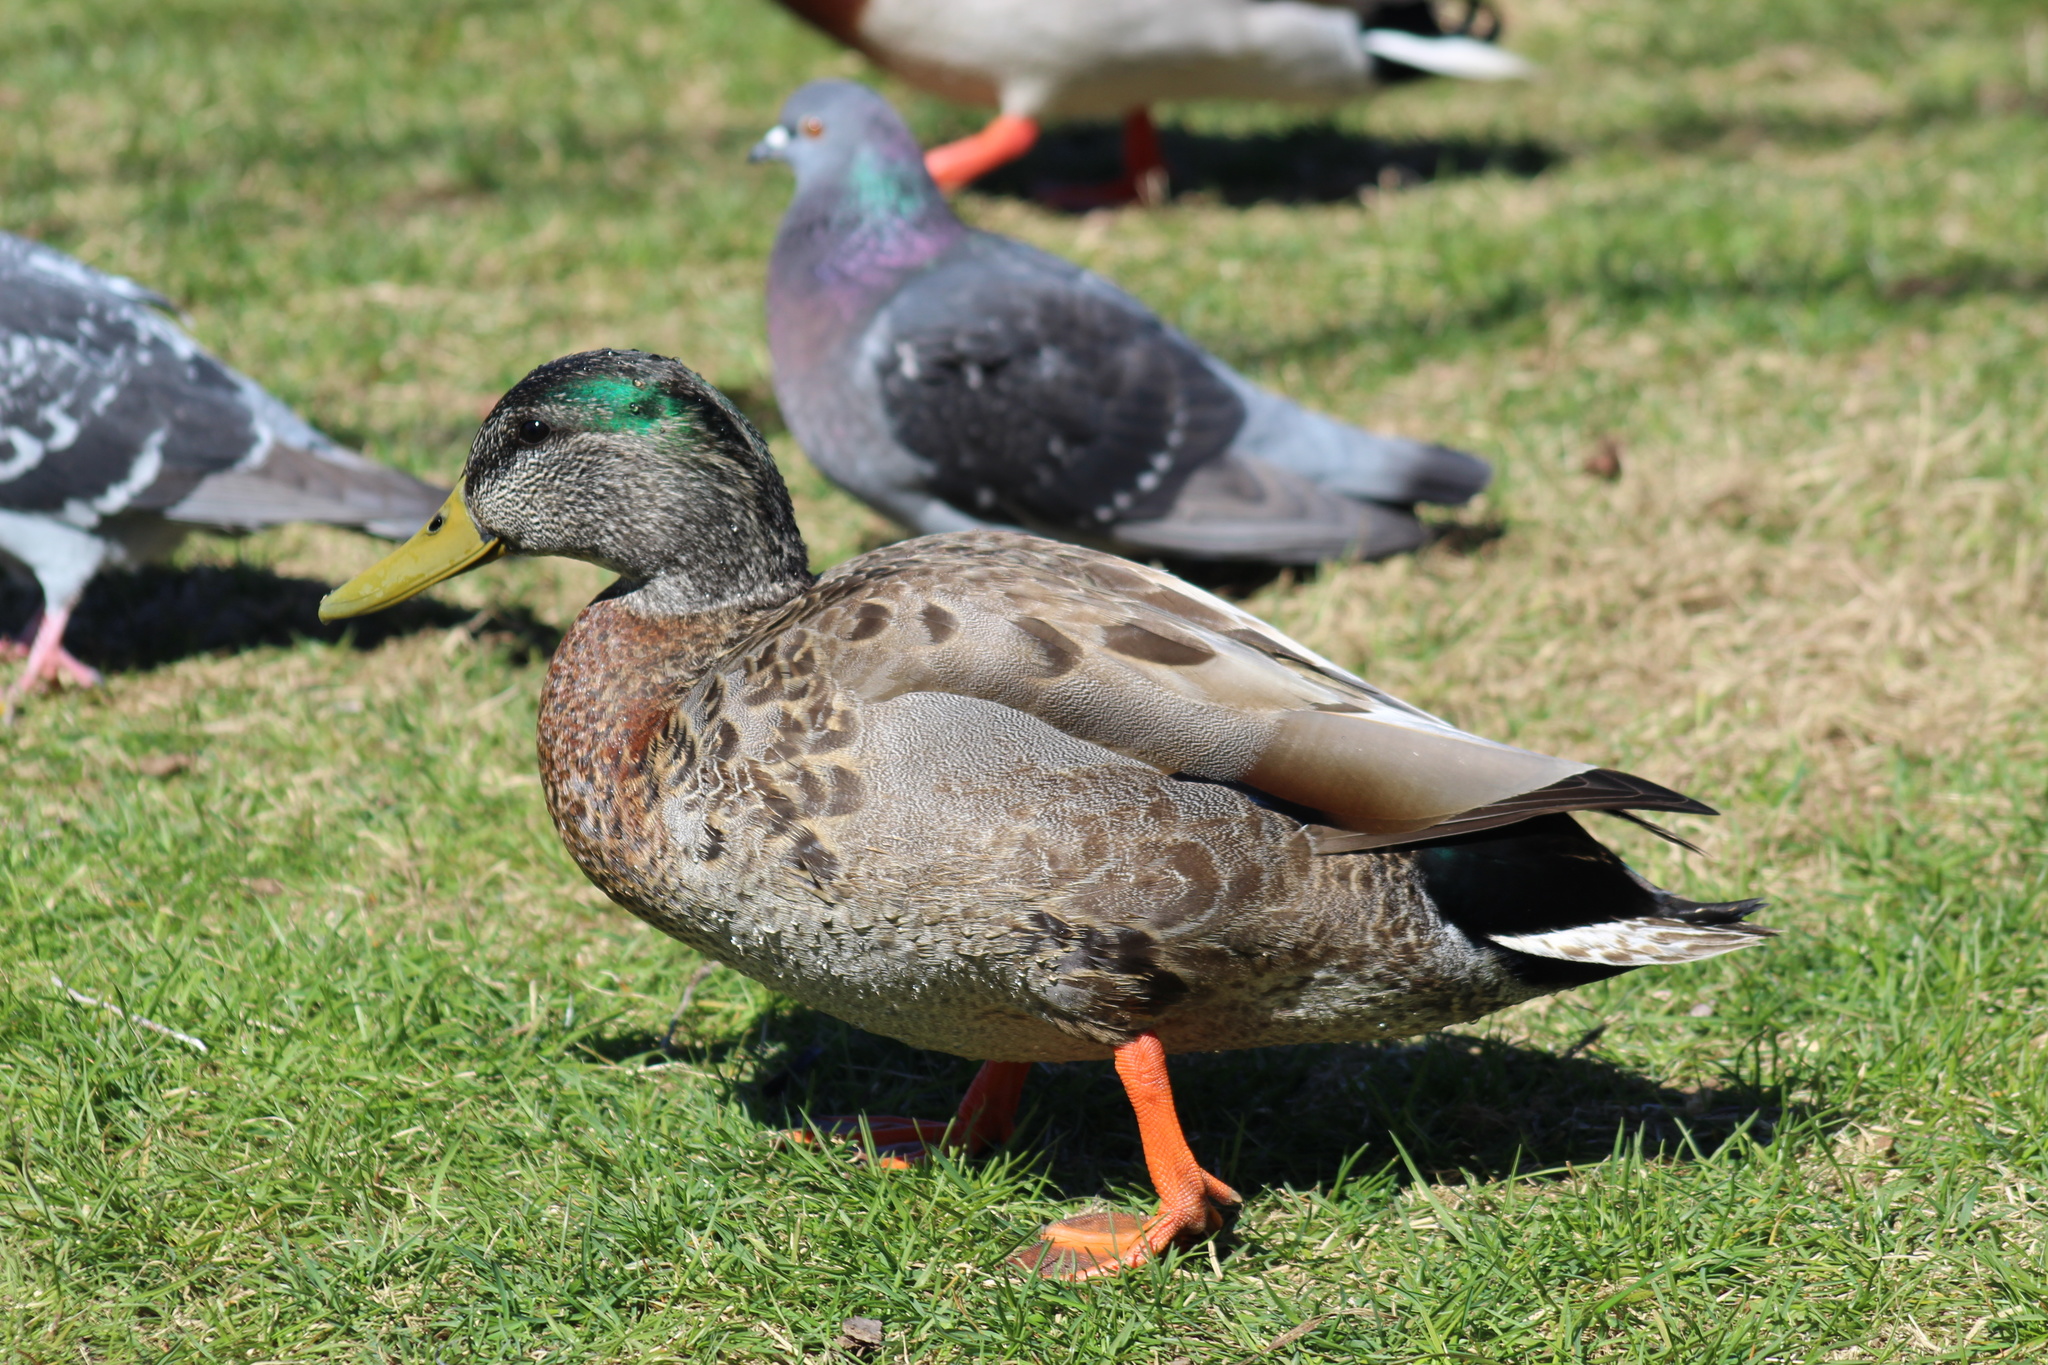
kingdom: Animalia
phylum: Chordata
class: Aves
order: Anseriformes
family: Anatidae
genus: Anas
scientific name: Anas
